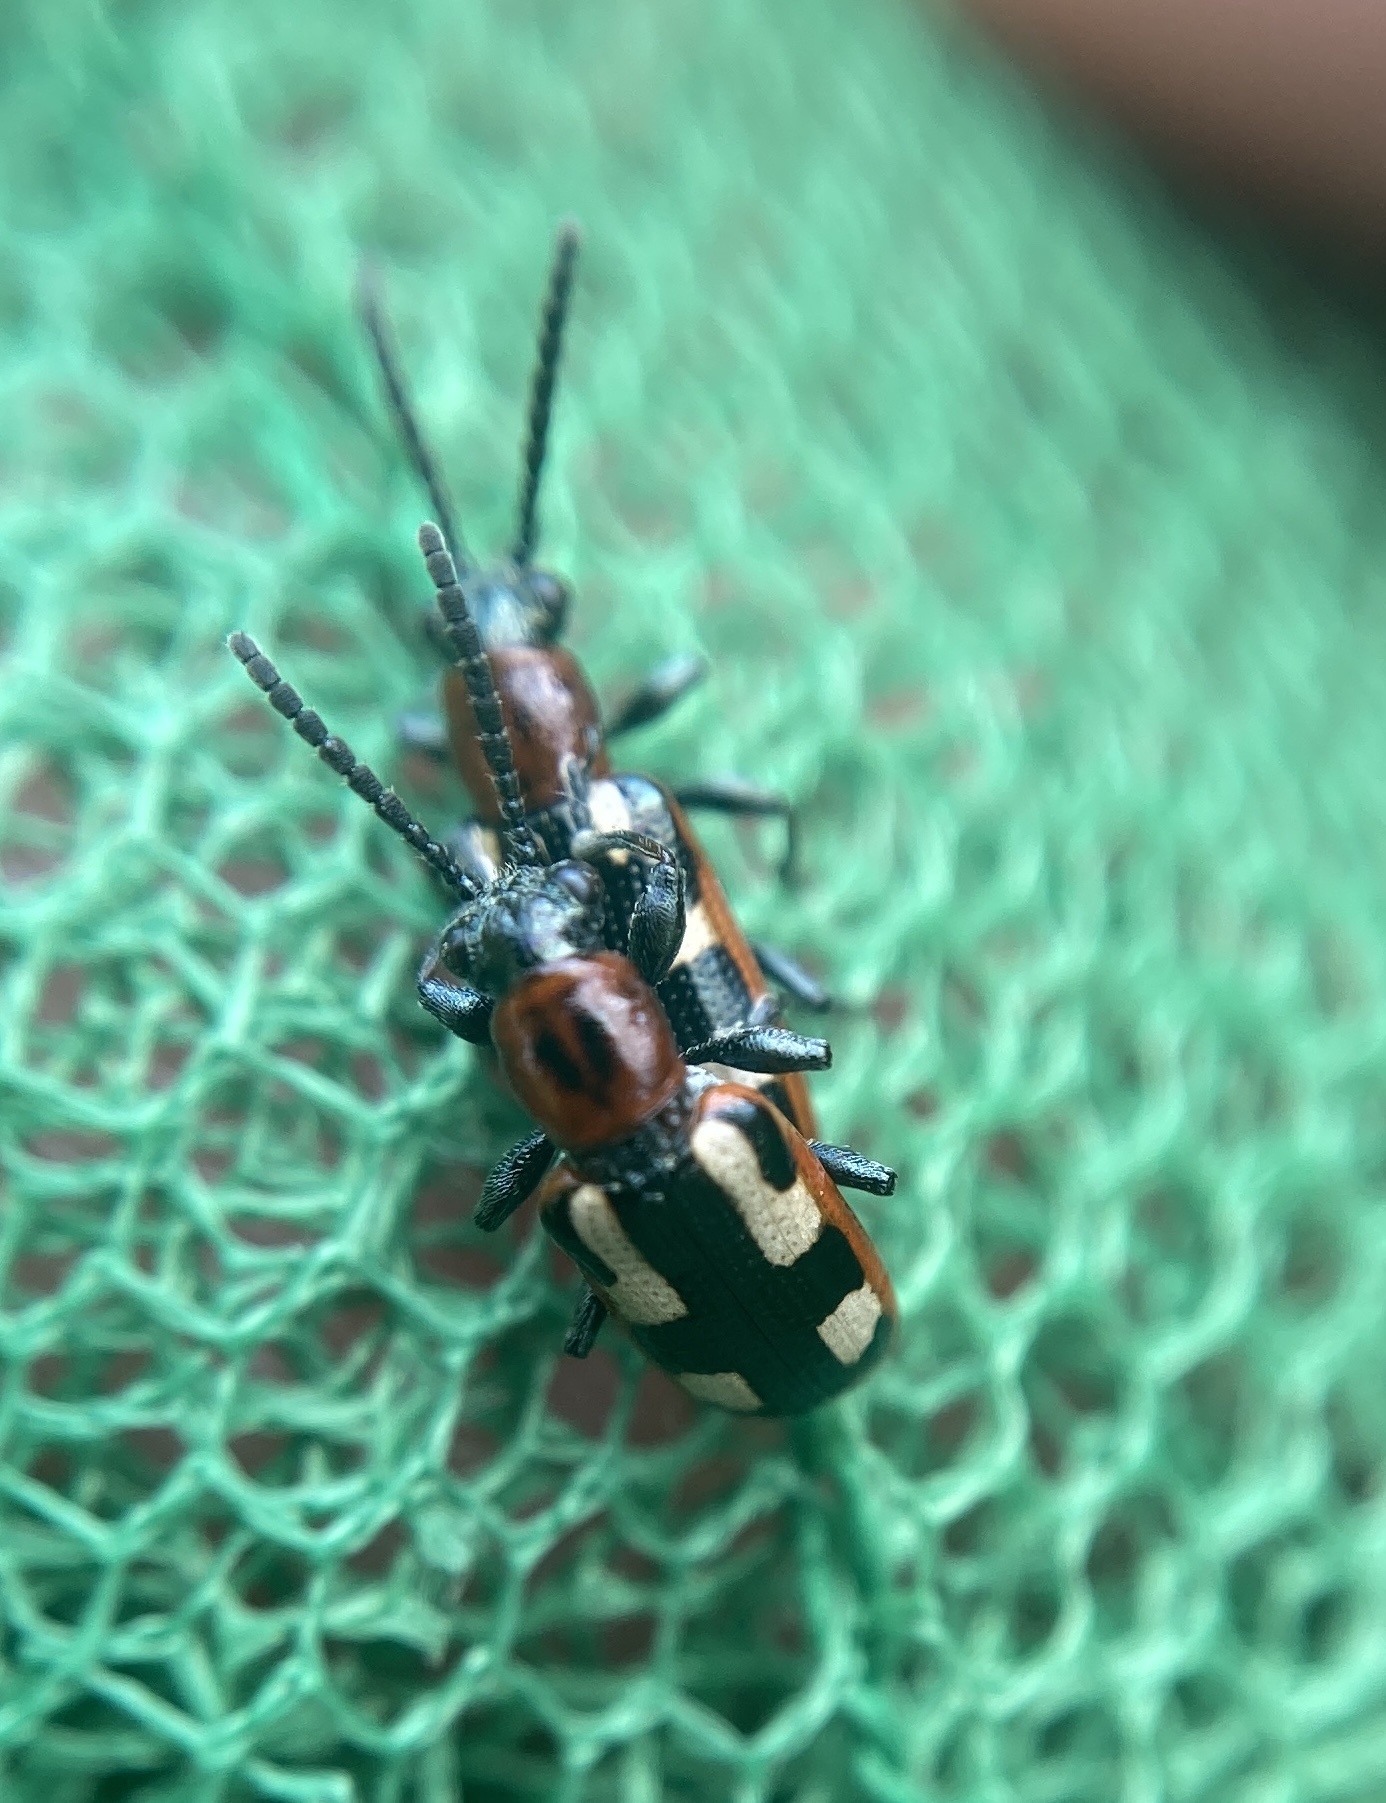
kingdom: Animalia
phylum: Arthropoda
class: Insecta
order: Coleoptera
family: Chrysomelidae
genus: Crioceris
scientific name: Crioceris asparagi
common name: Asparagus beetle
